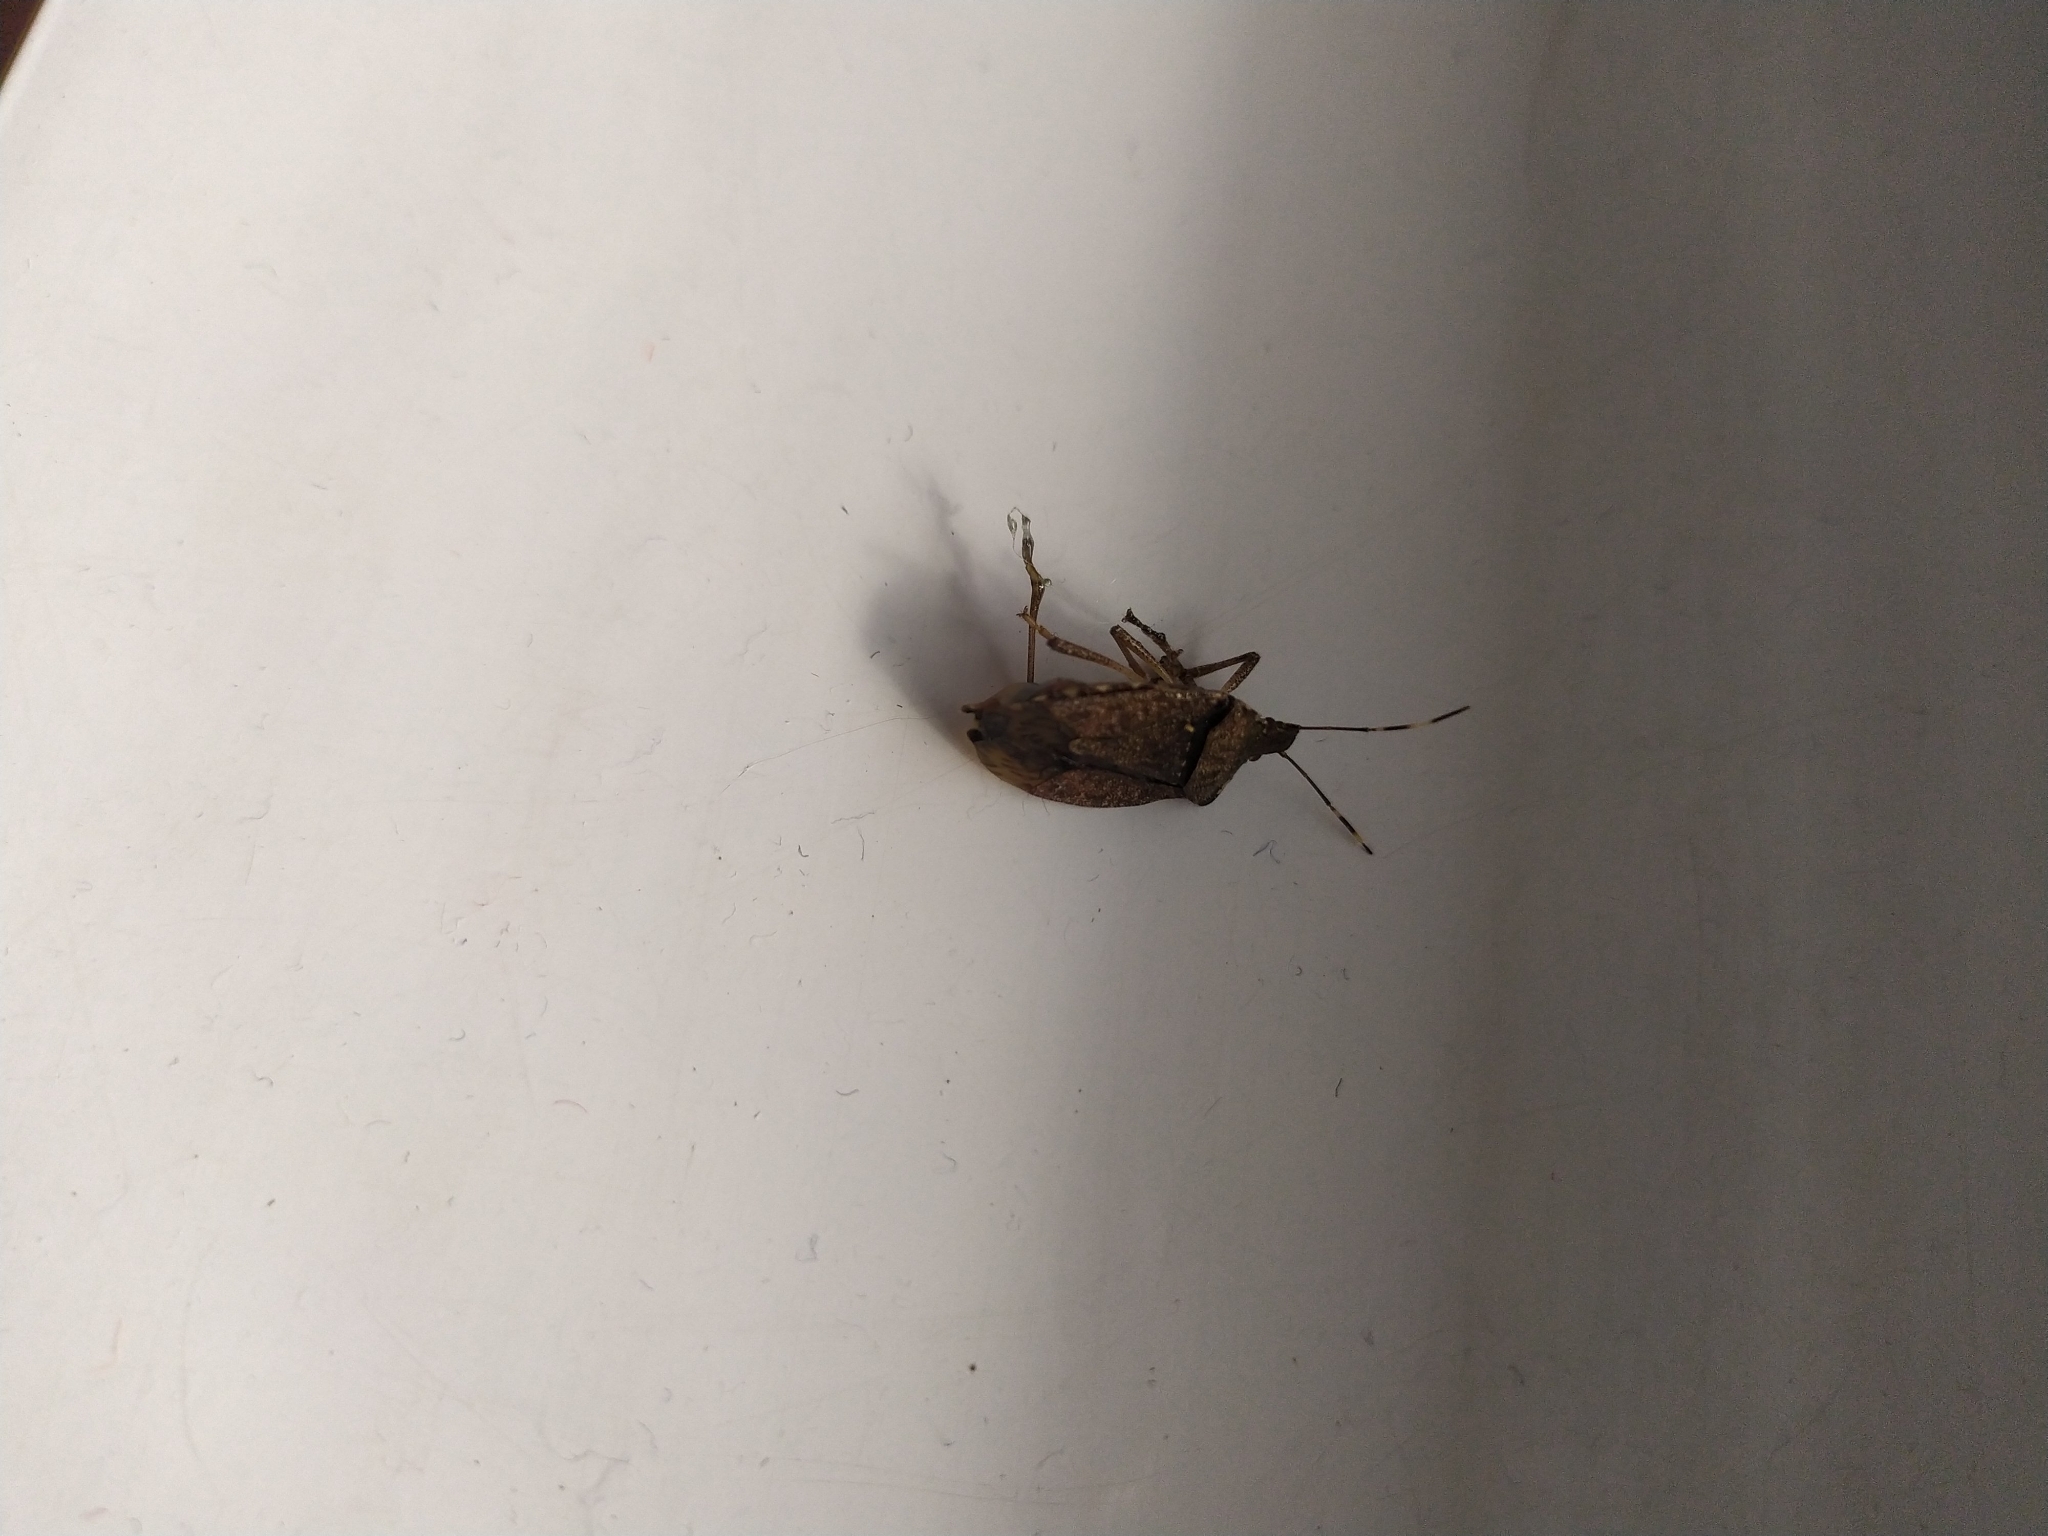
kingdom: Animalia
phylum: Arthropoda
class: Insecta
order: Hemiptera
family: Pentatomidae
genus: Halyomorpha
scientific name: Halyomorpha halys
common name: Brown marmorated stink bug
